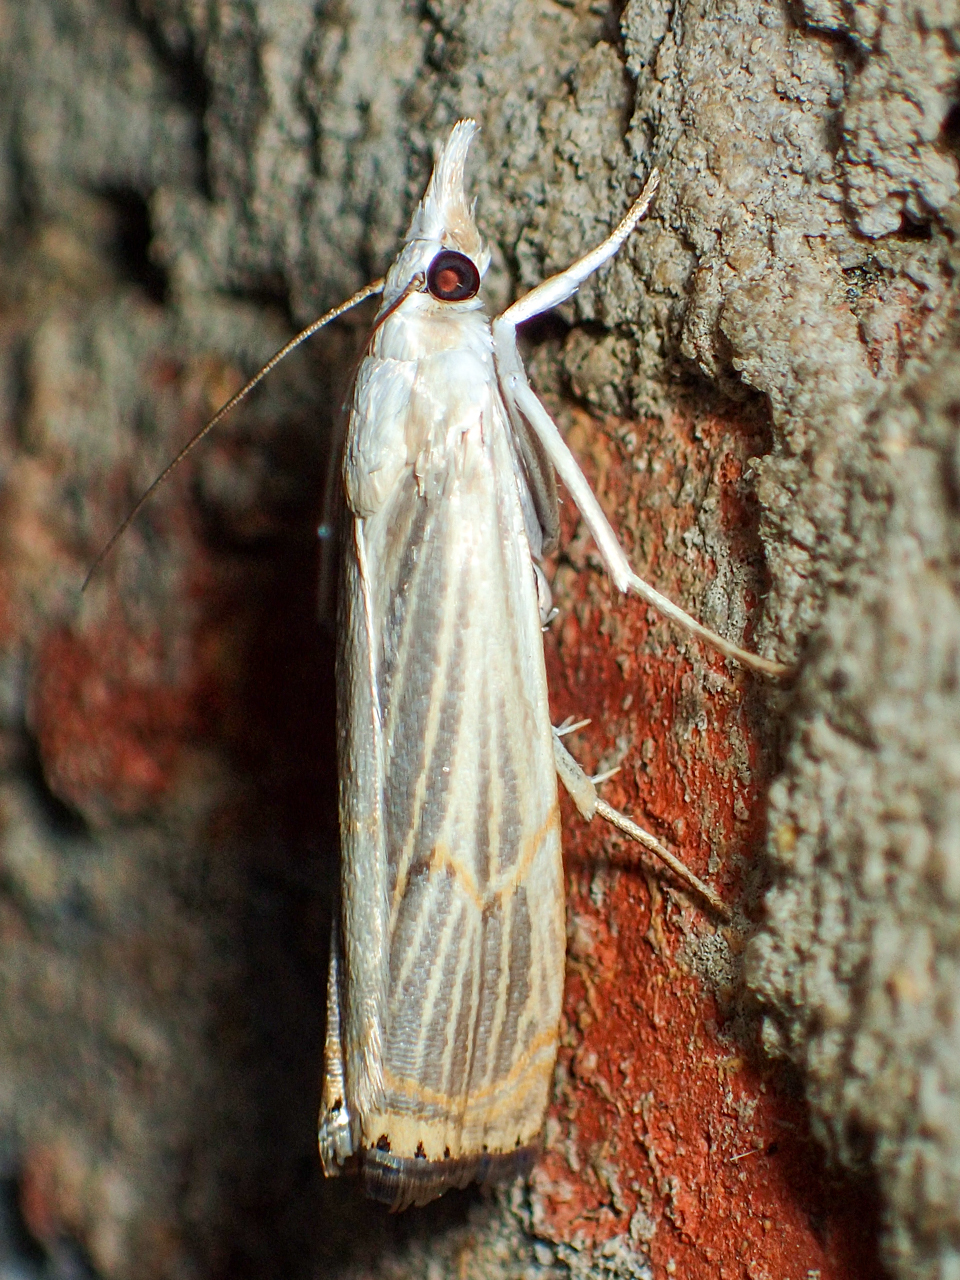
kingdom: Animalia
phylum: Arthropoda
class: Insecta
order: Lepidoptera
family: Crambidae
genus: Parapediasia
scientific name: Parapediasia decorellus
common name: Graceful grass-veneer
